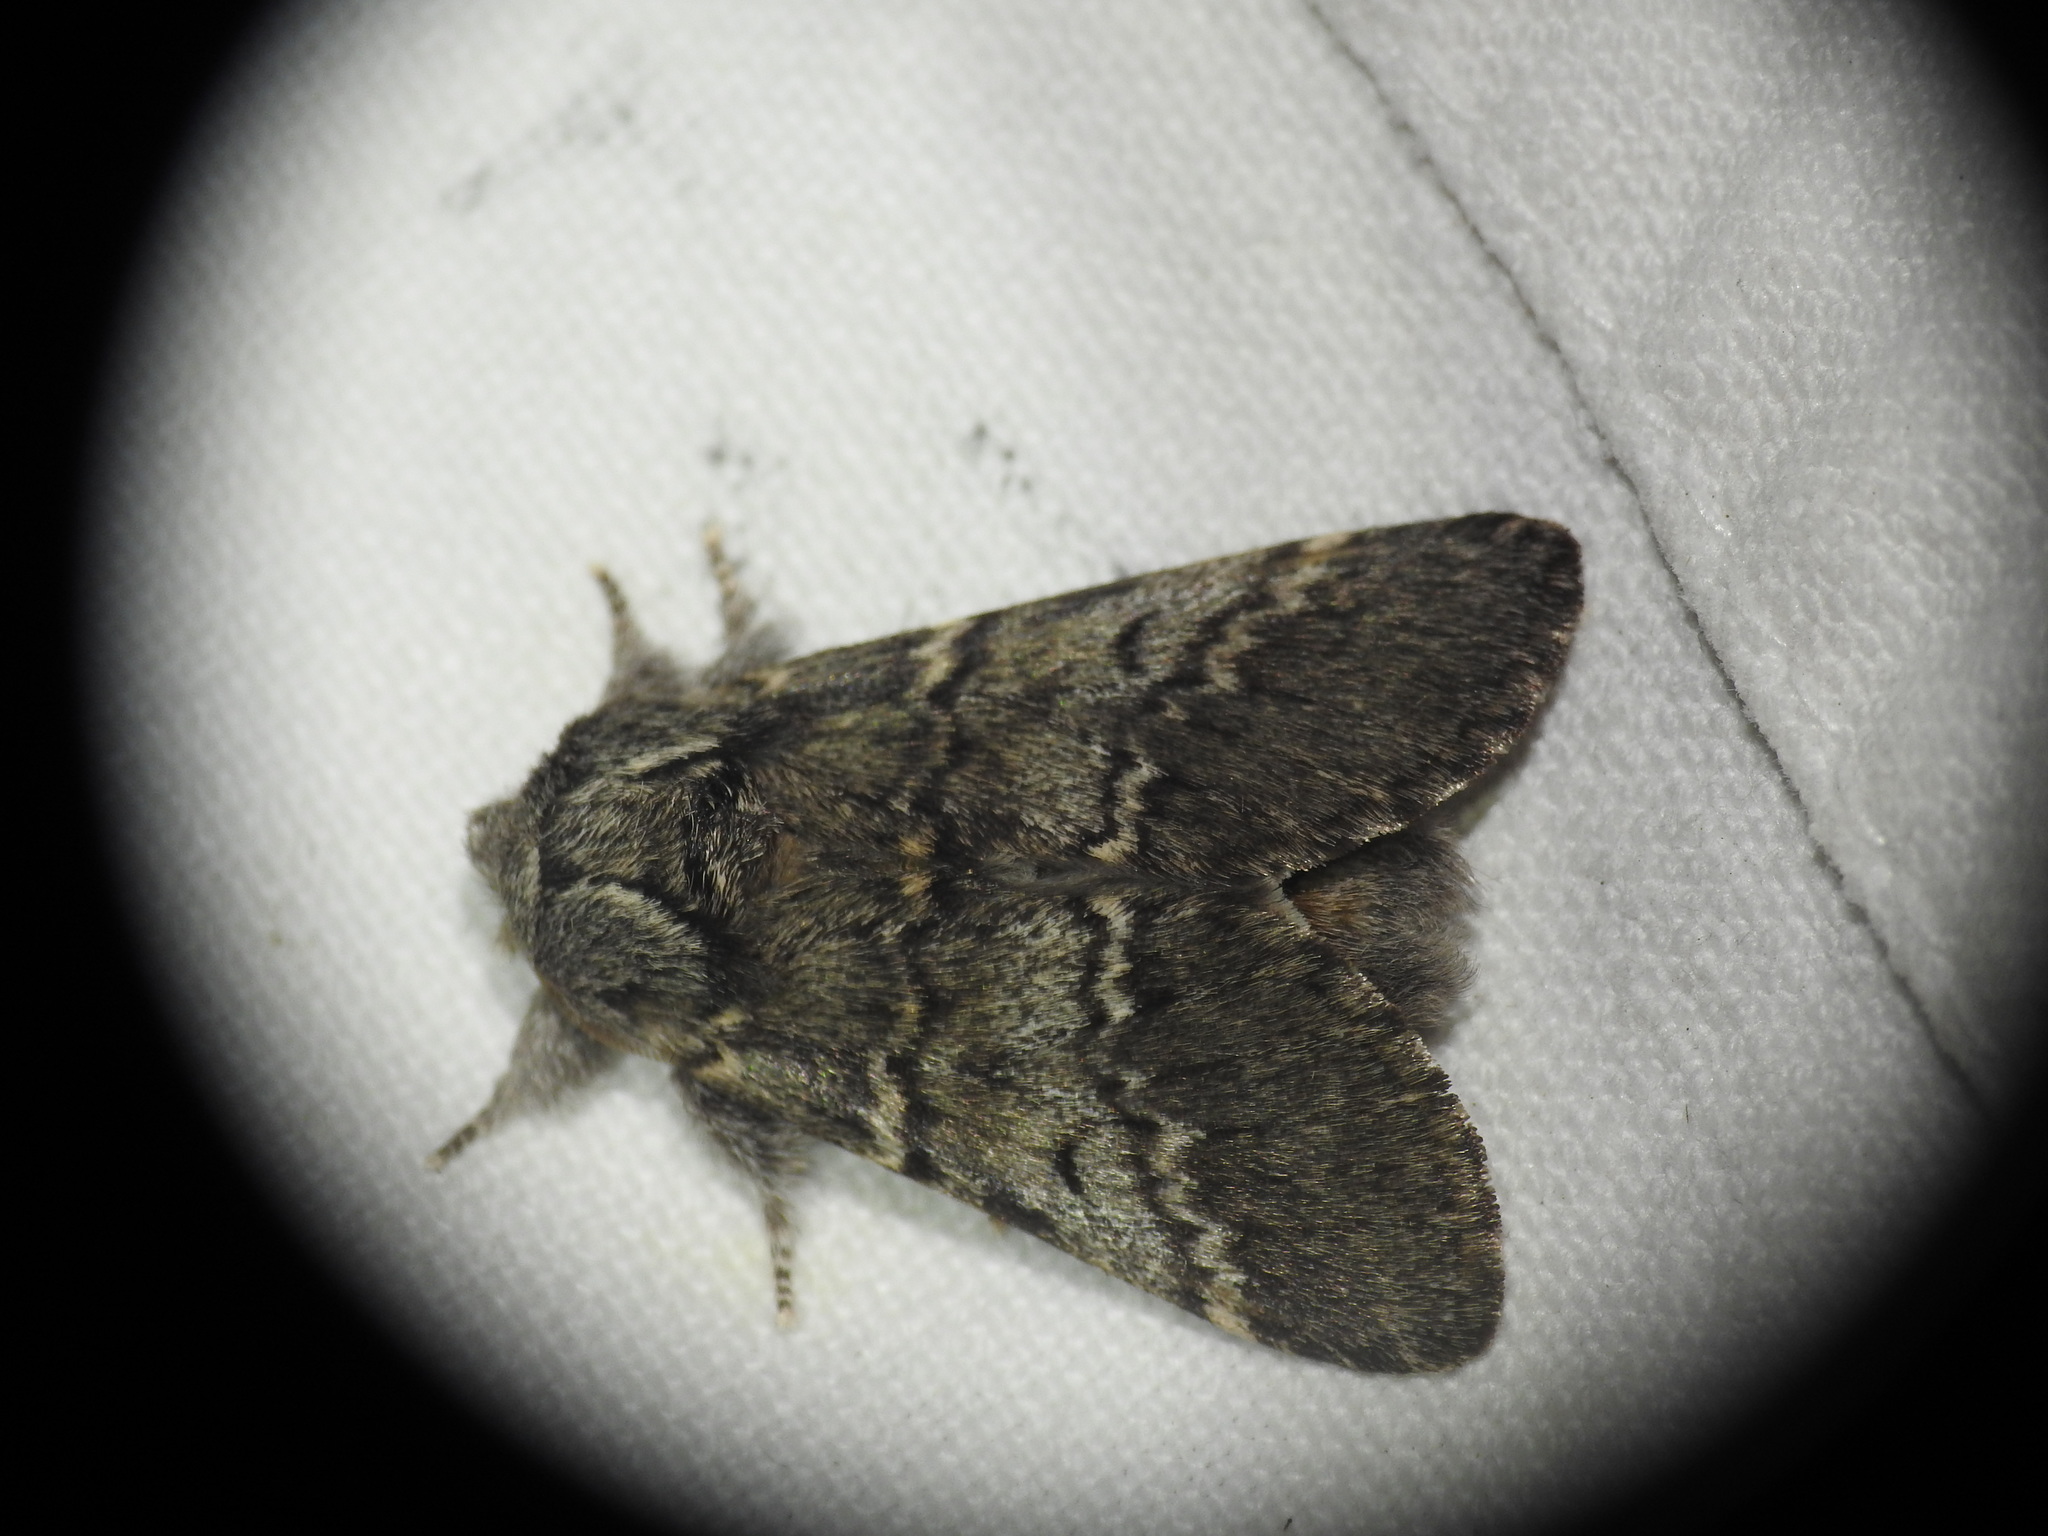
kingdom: Animalia
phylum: Arthropoda
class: Insecta
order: Lepidoptera
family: Notodontidae
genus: Drymonia
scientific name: Drymonia ruficornis
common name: Lunar marbled brown
